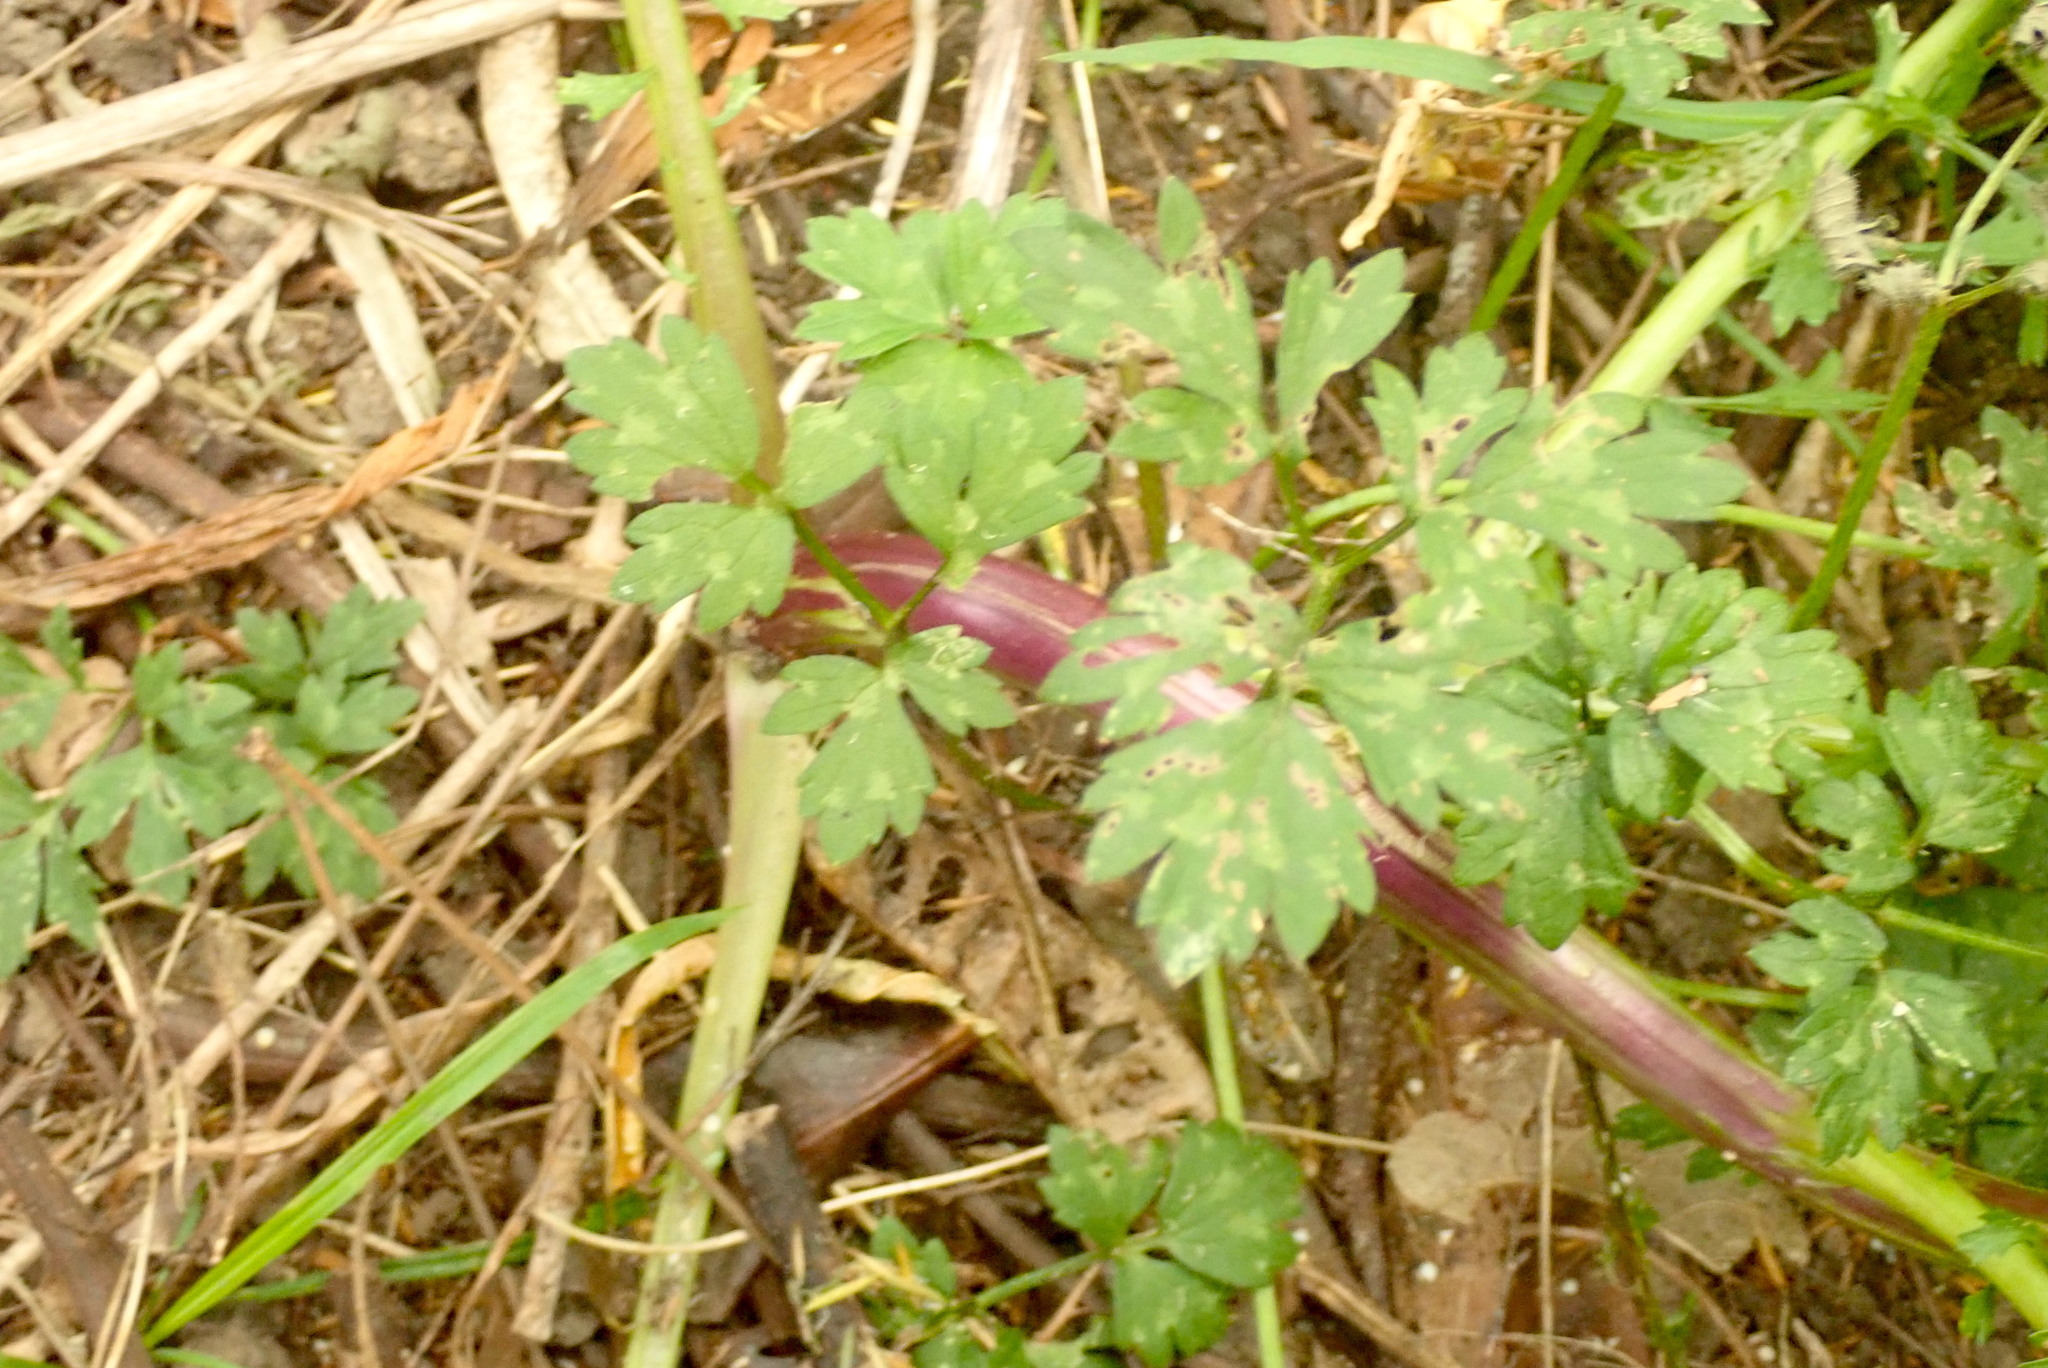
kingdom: Plantae
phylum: Tracheophyta
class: Magnoliopsida
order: Asterales
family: Asteraceae
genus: Jacobaea
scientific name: Jacobaea vulgaris
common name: Stinking willie
